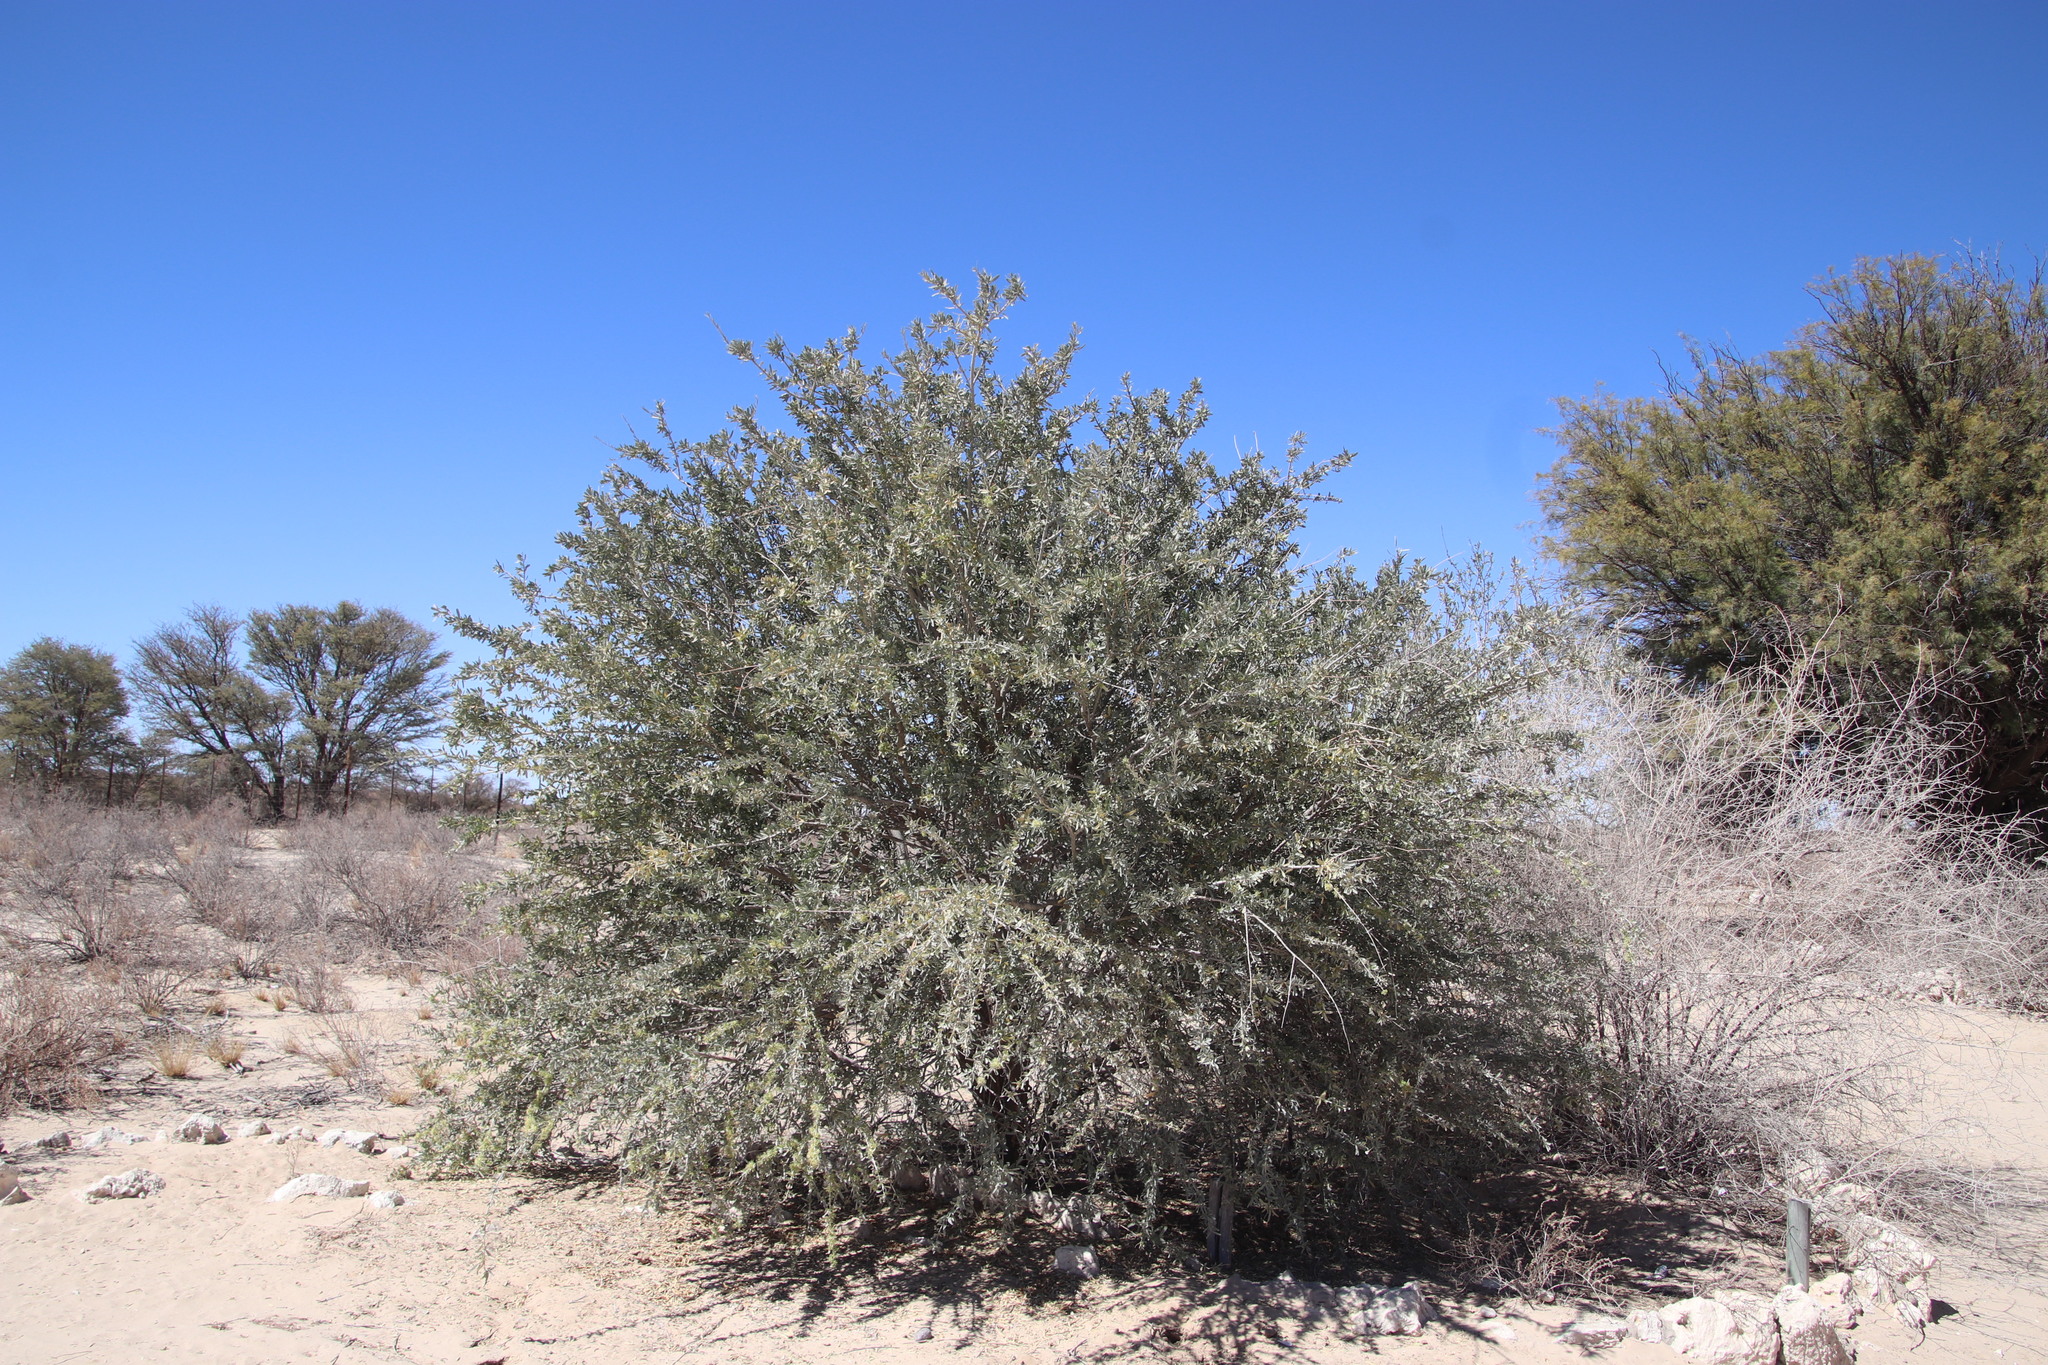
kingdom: Plantae
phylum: Tracheophyta
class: Magnoliopsida
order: Brassicales
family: Capparaceae
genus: Boscia
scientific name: Boscia albitrunca
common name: Caper bush
